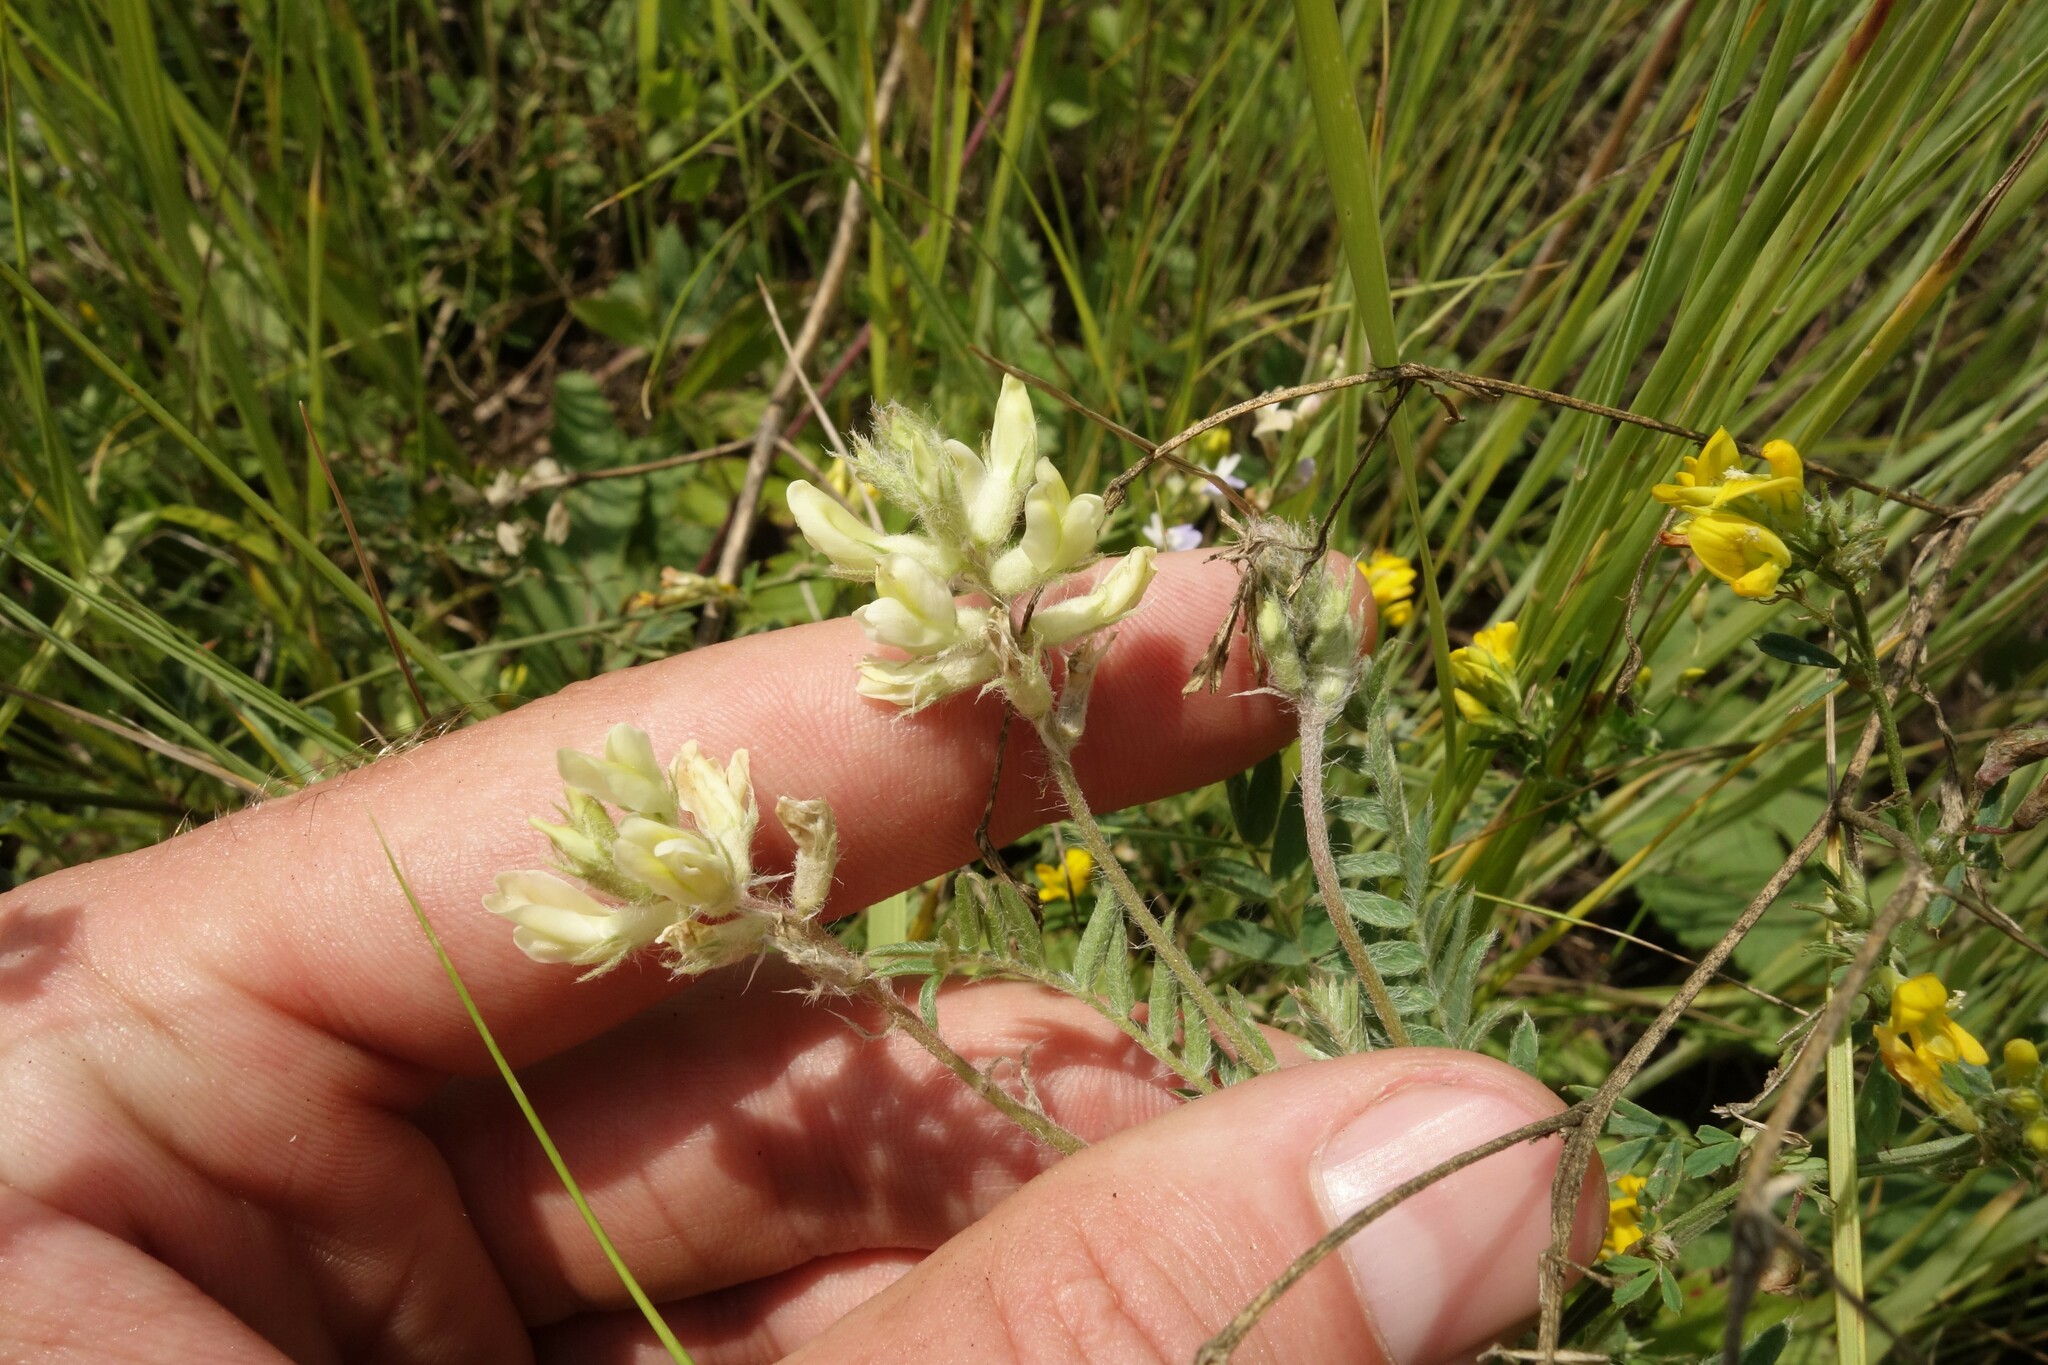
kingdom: Plantae
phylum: Tracheophyta
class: Magnoliopsida
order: Fabales
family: Fabaceae
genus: Oxytropis
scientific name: Oxytropis pilosa
